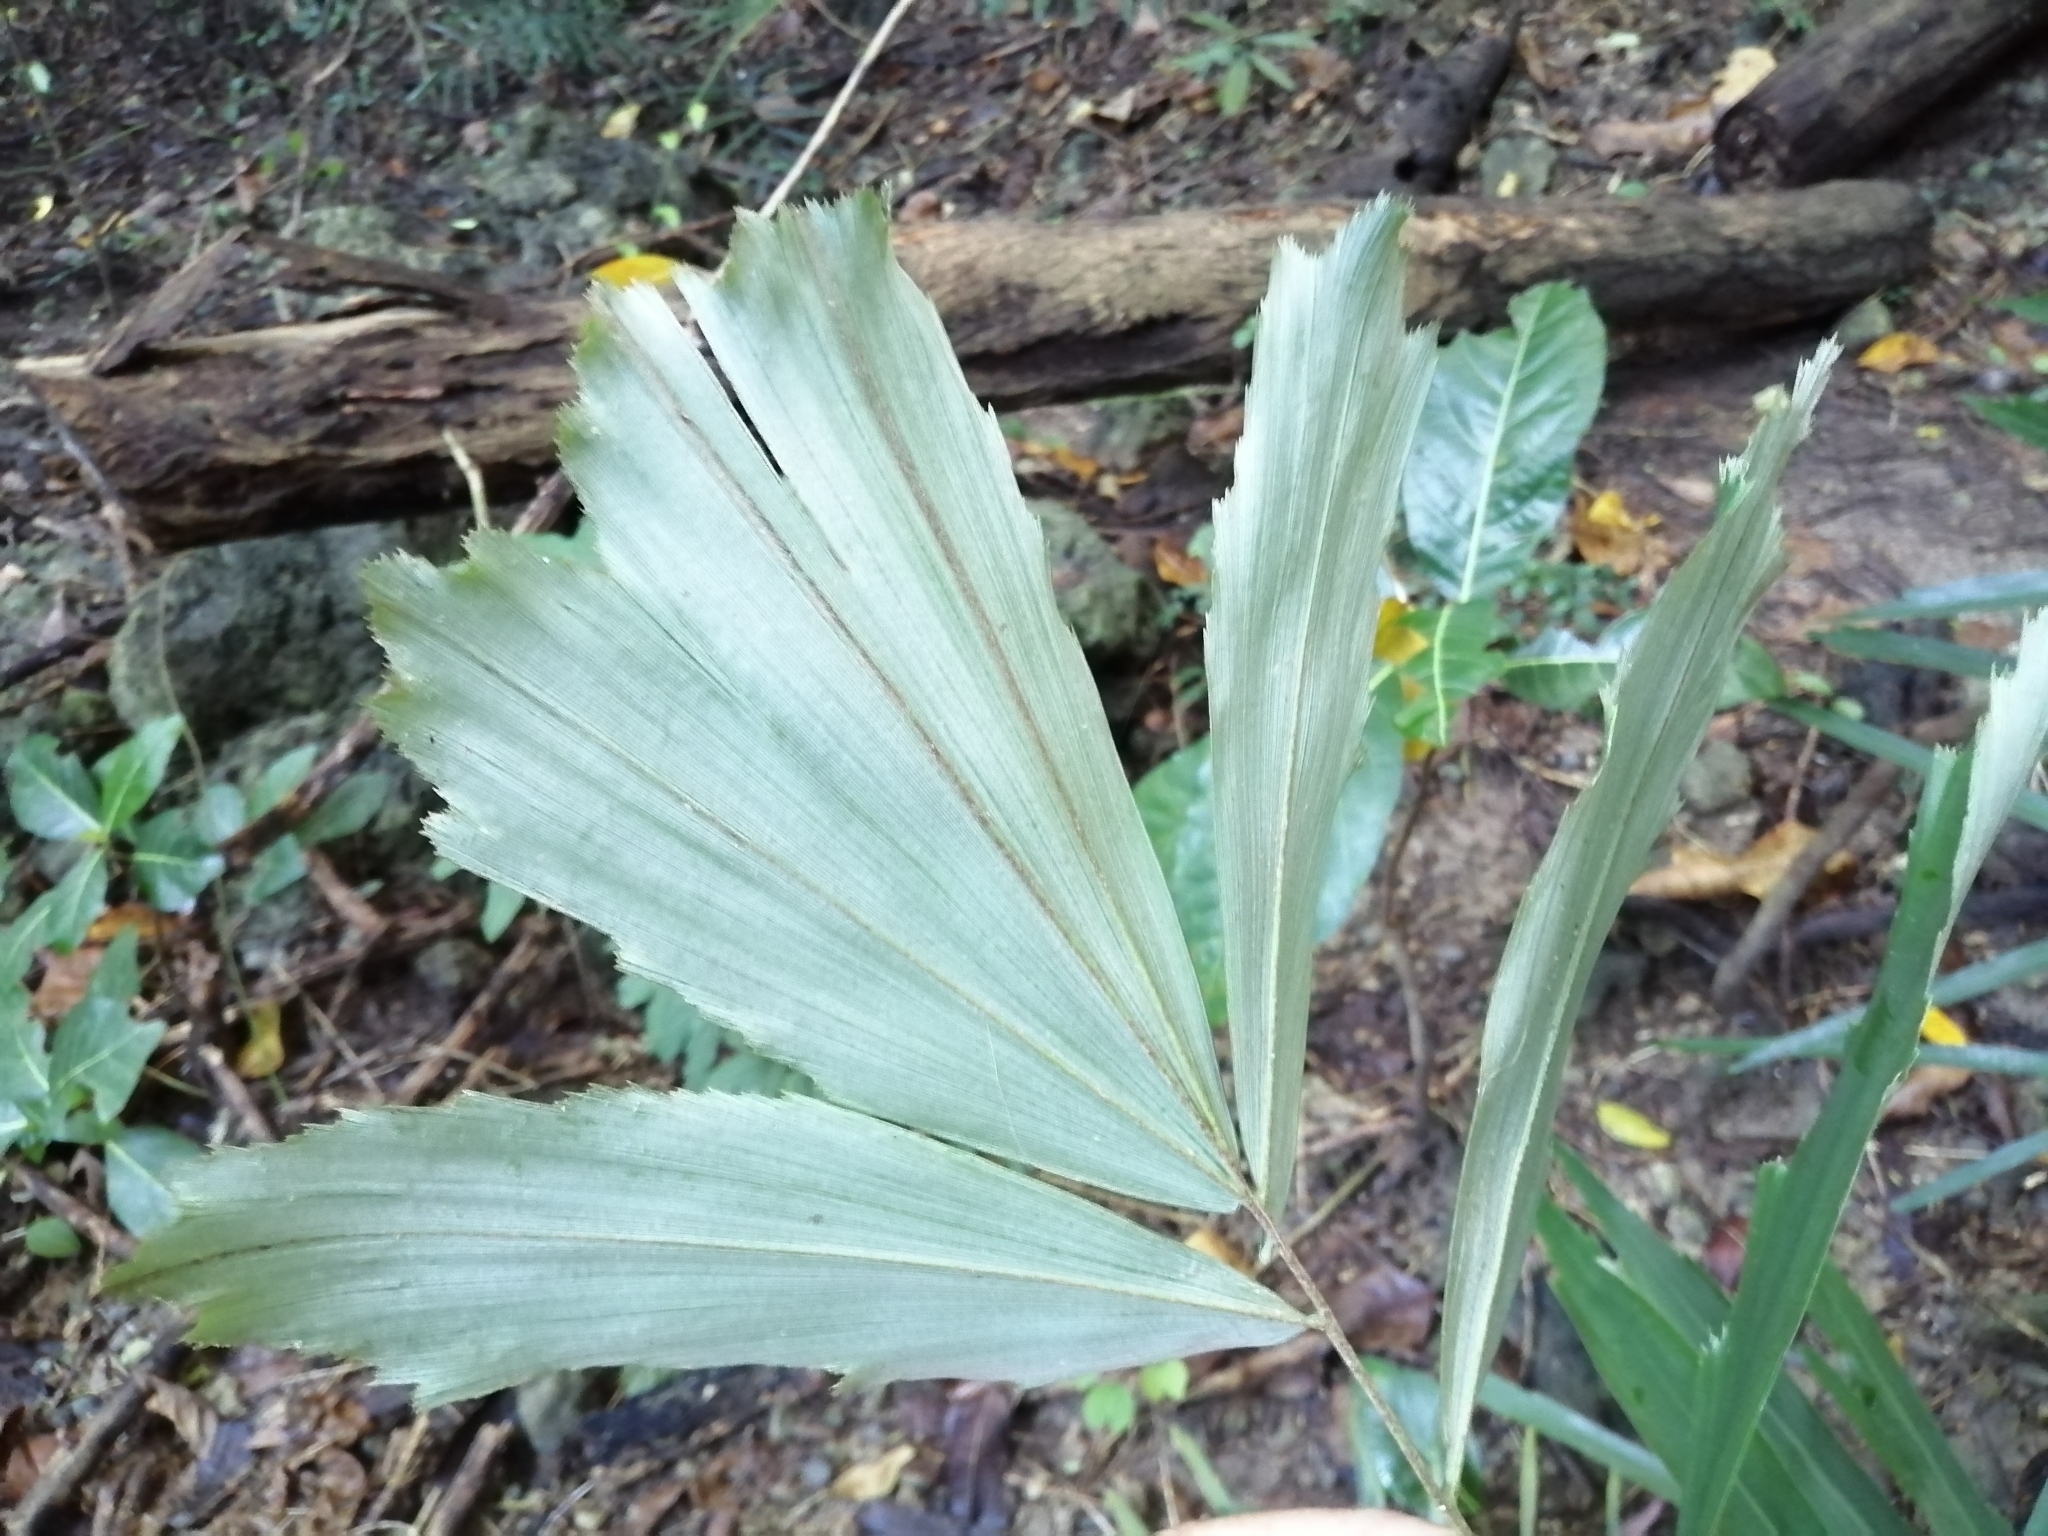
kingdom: Plantae
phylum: Tracheophyta
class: Liliopsida
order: Arecales
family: Arecaceae
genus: Arenga
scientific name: Arenga engleri
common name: Formosan sugar palm
